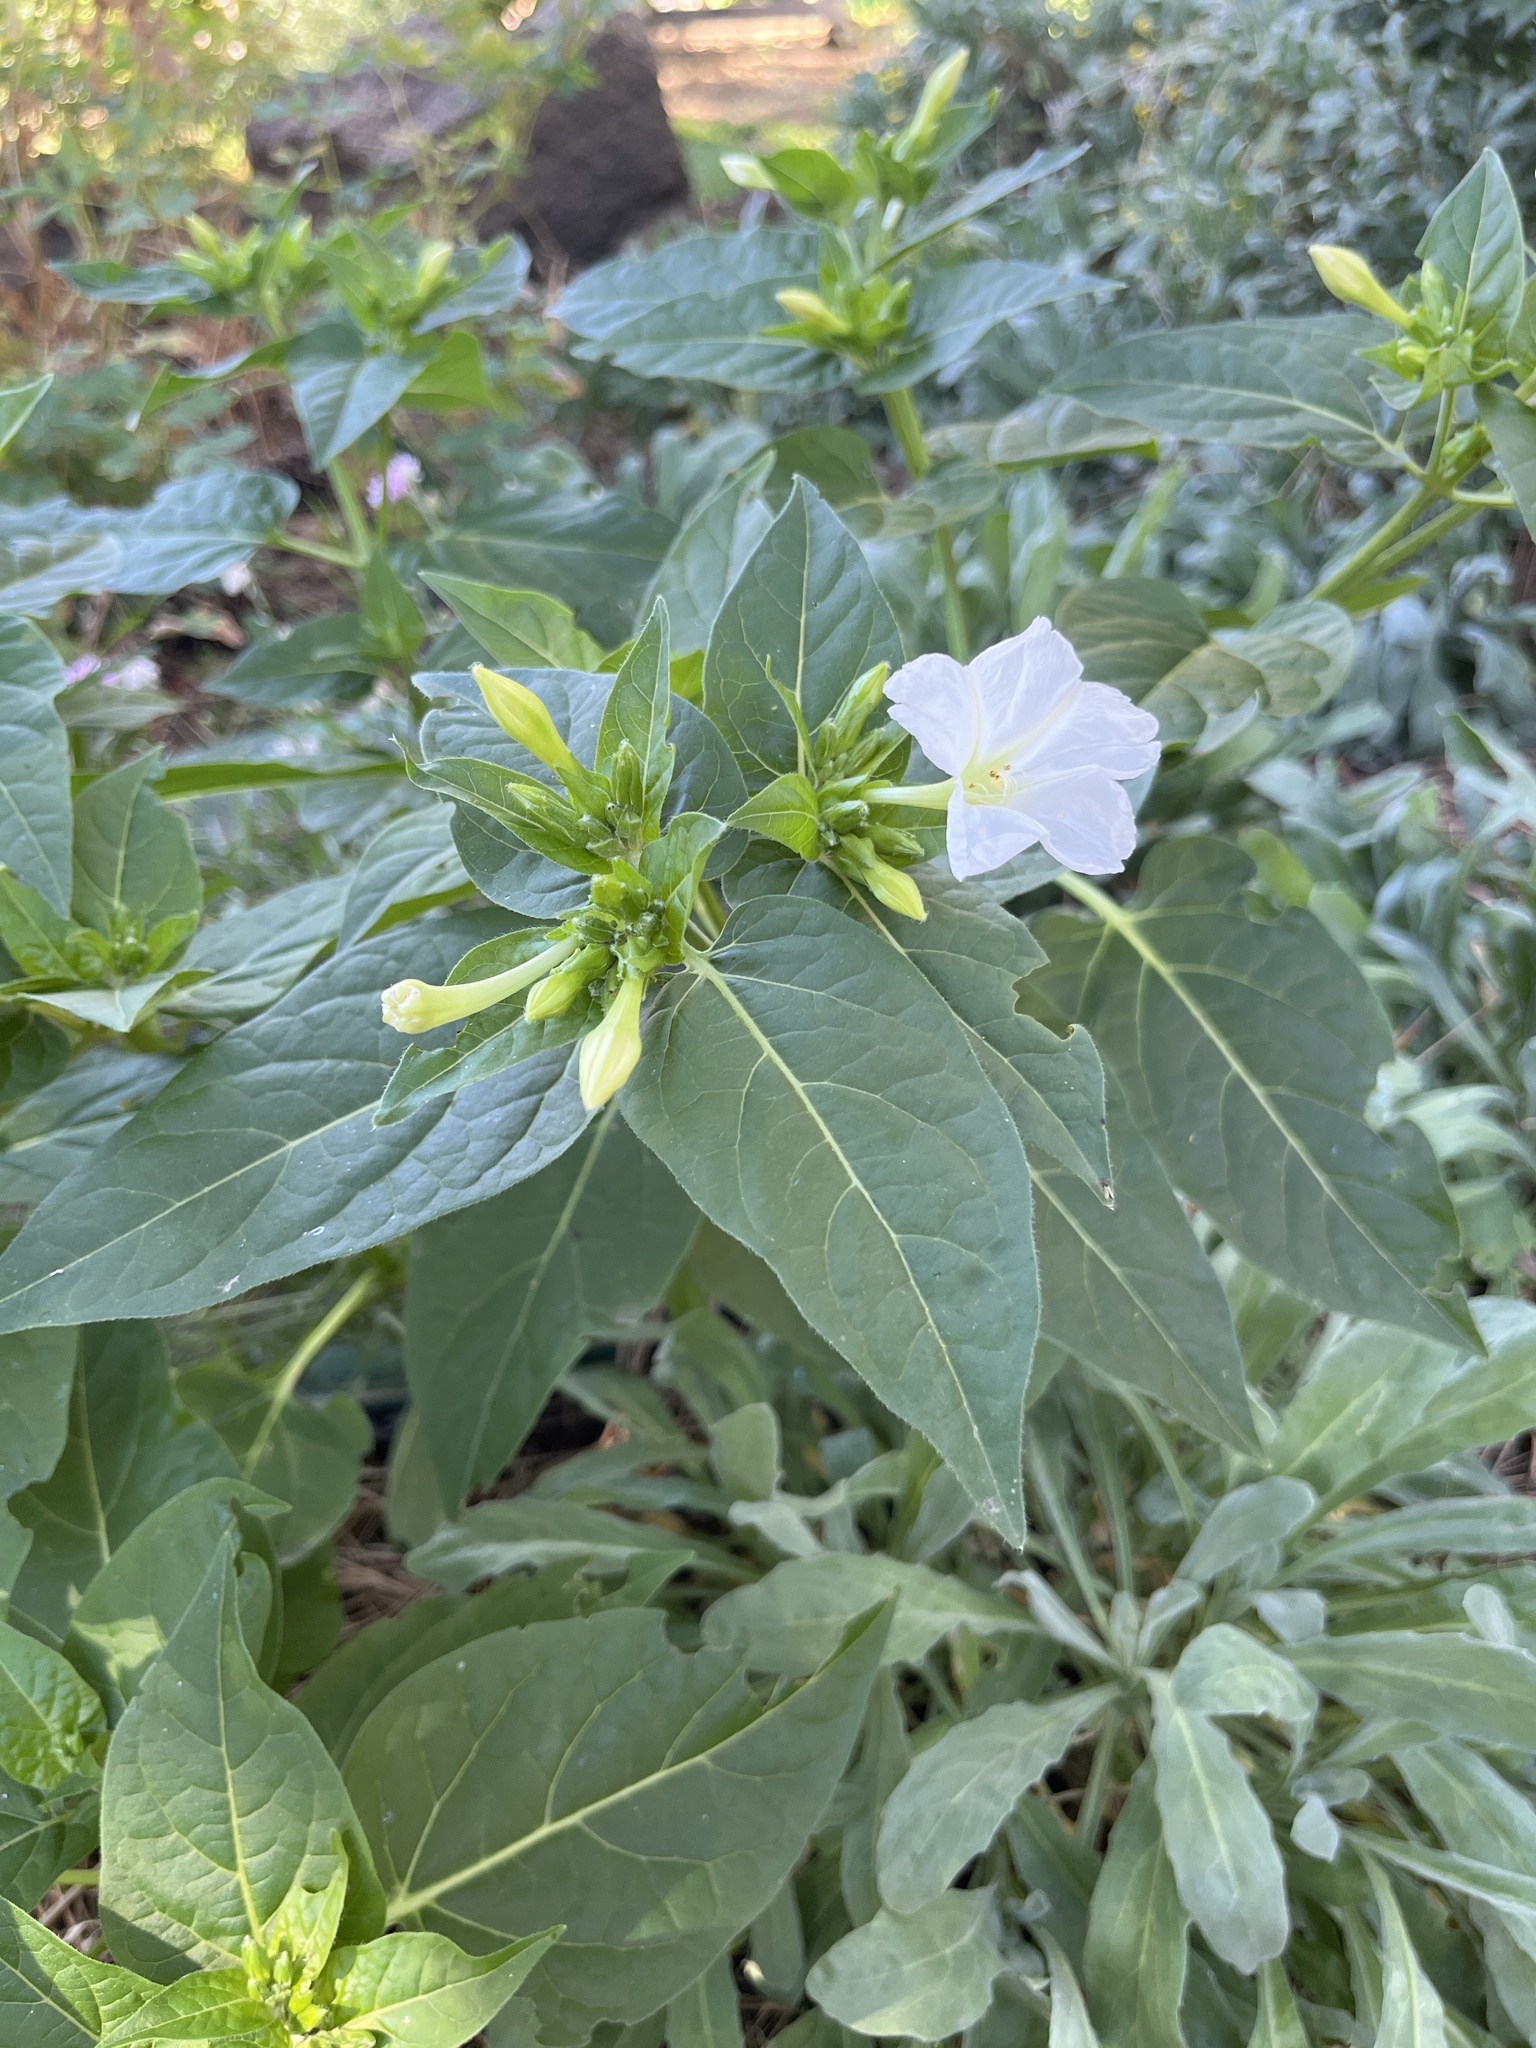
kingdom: Plantae
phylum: Tracheophyta
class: Magnoliopsida
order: Caryophyllales
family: Nyctaginaceae
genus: Mirabilis
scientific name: Mirabilis jalapa
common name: Marvel-of-peru
